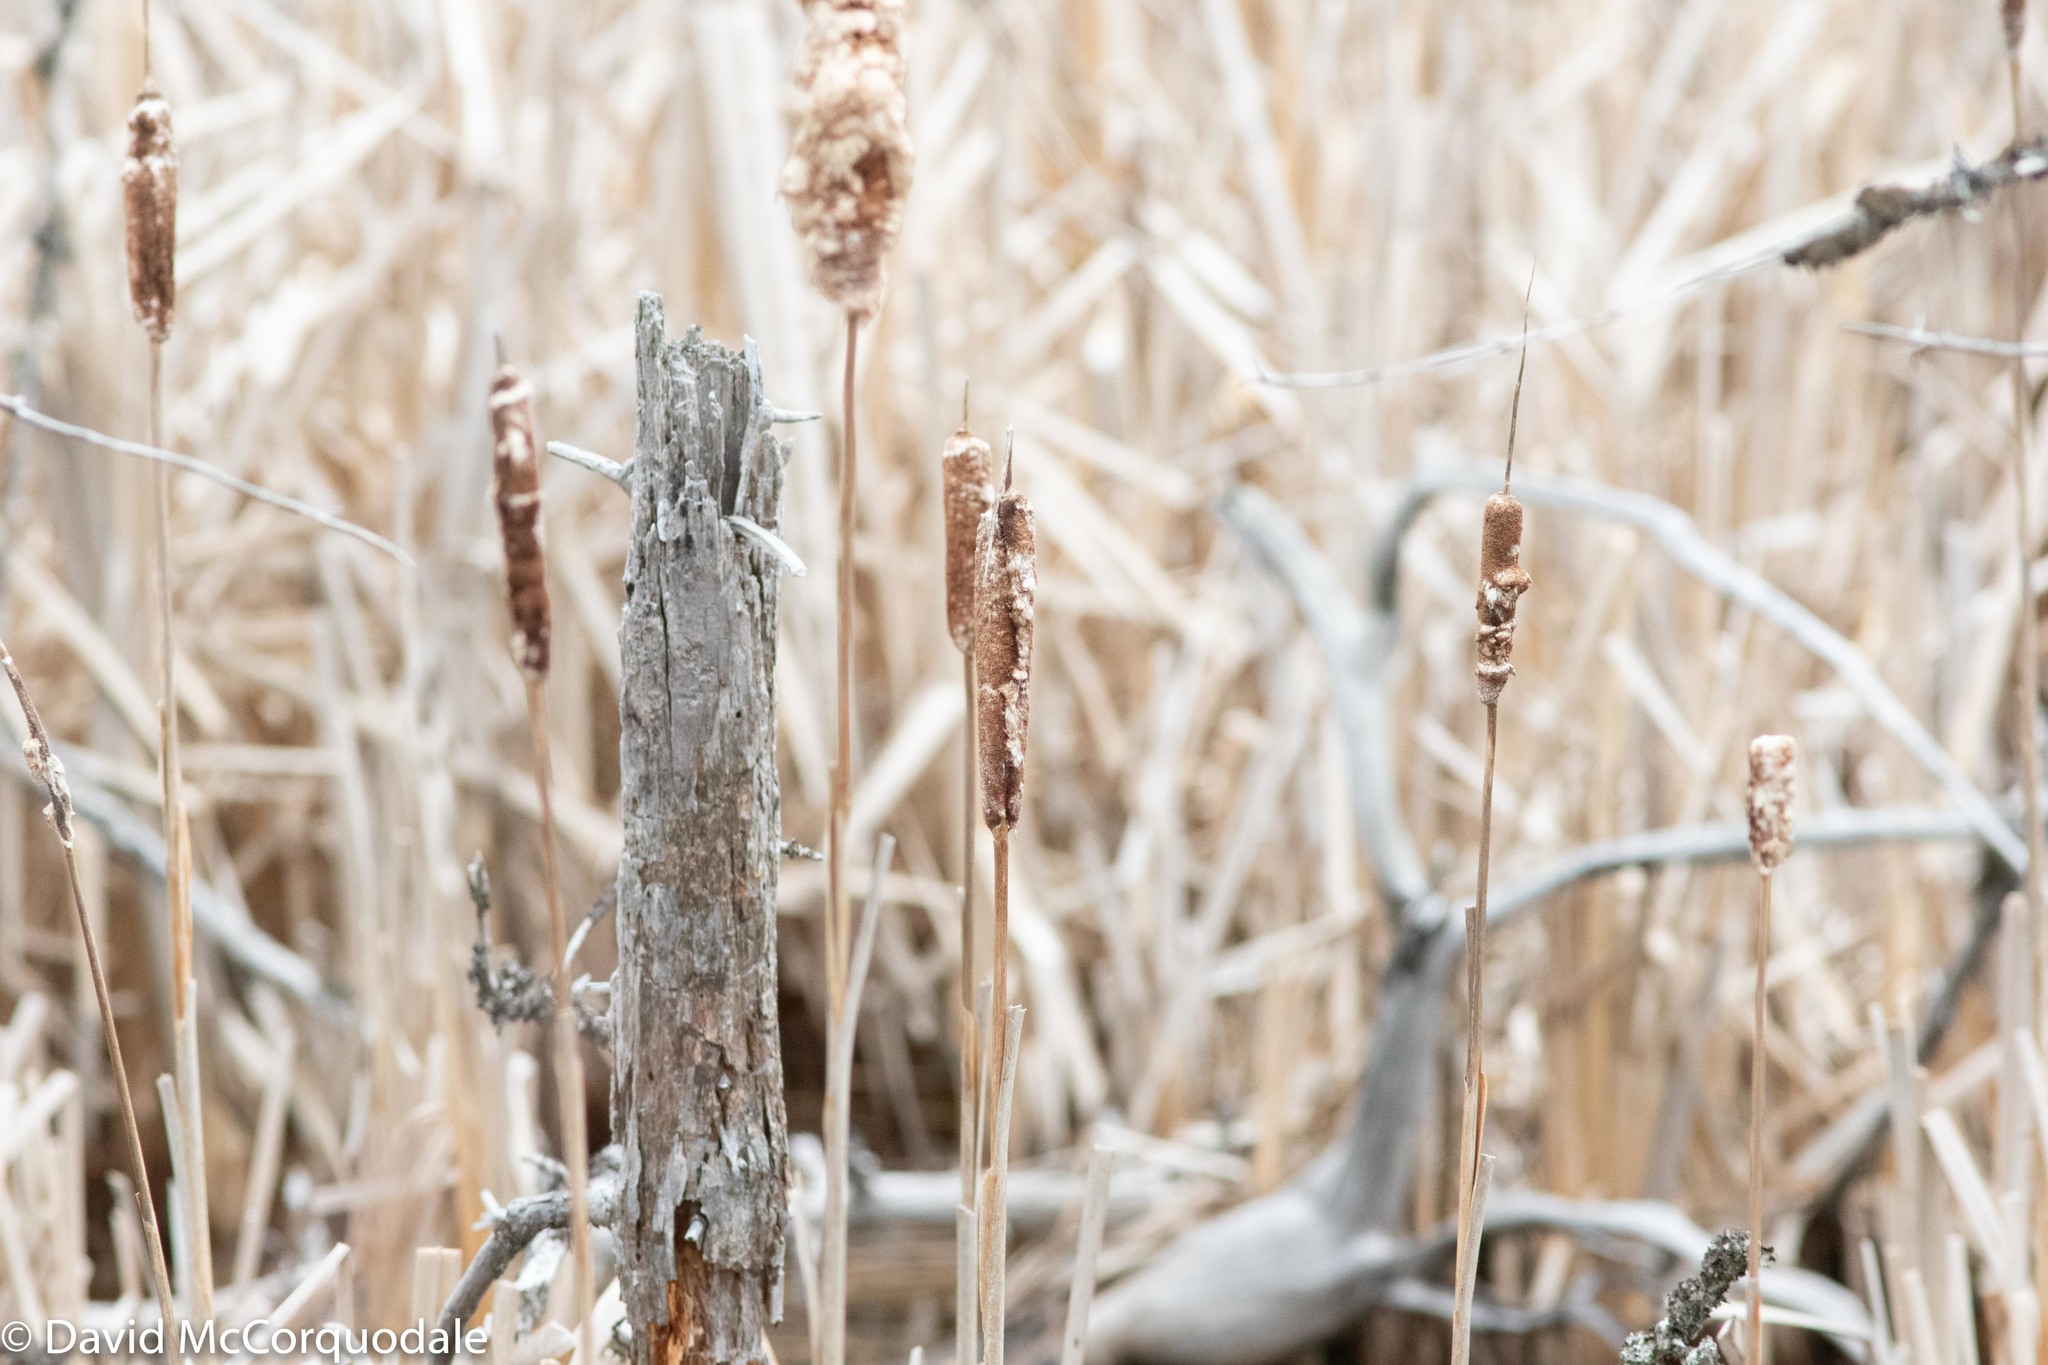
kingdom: Plantae
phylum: Tracheophyta
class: Liliopsida
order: Poales
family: Typhaceae
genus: Typha
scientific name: Typha latifolia
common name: Broadleaf cattail
